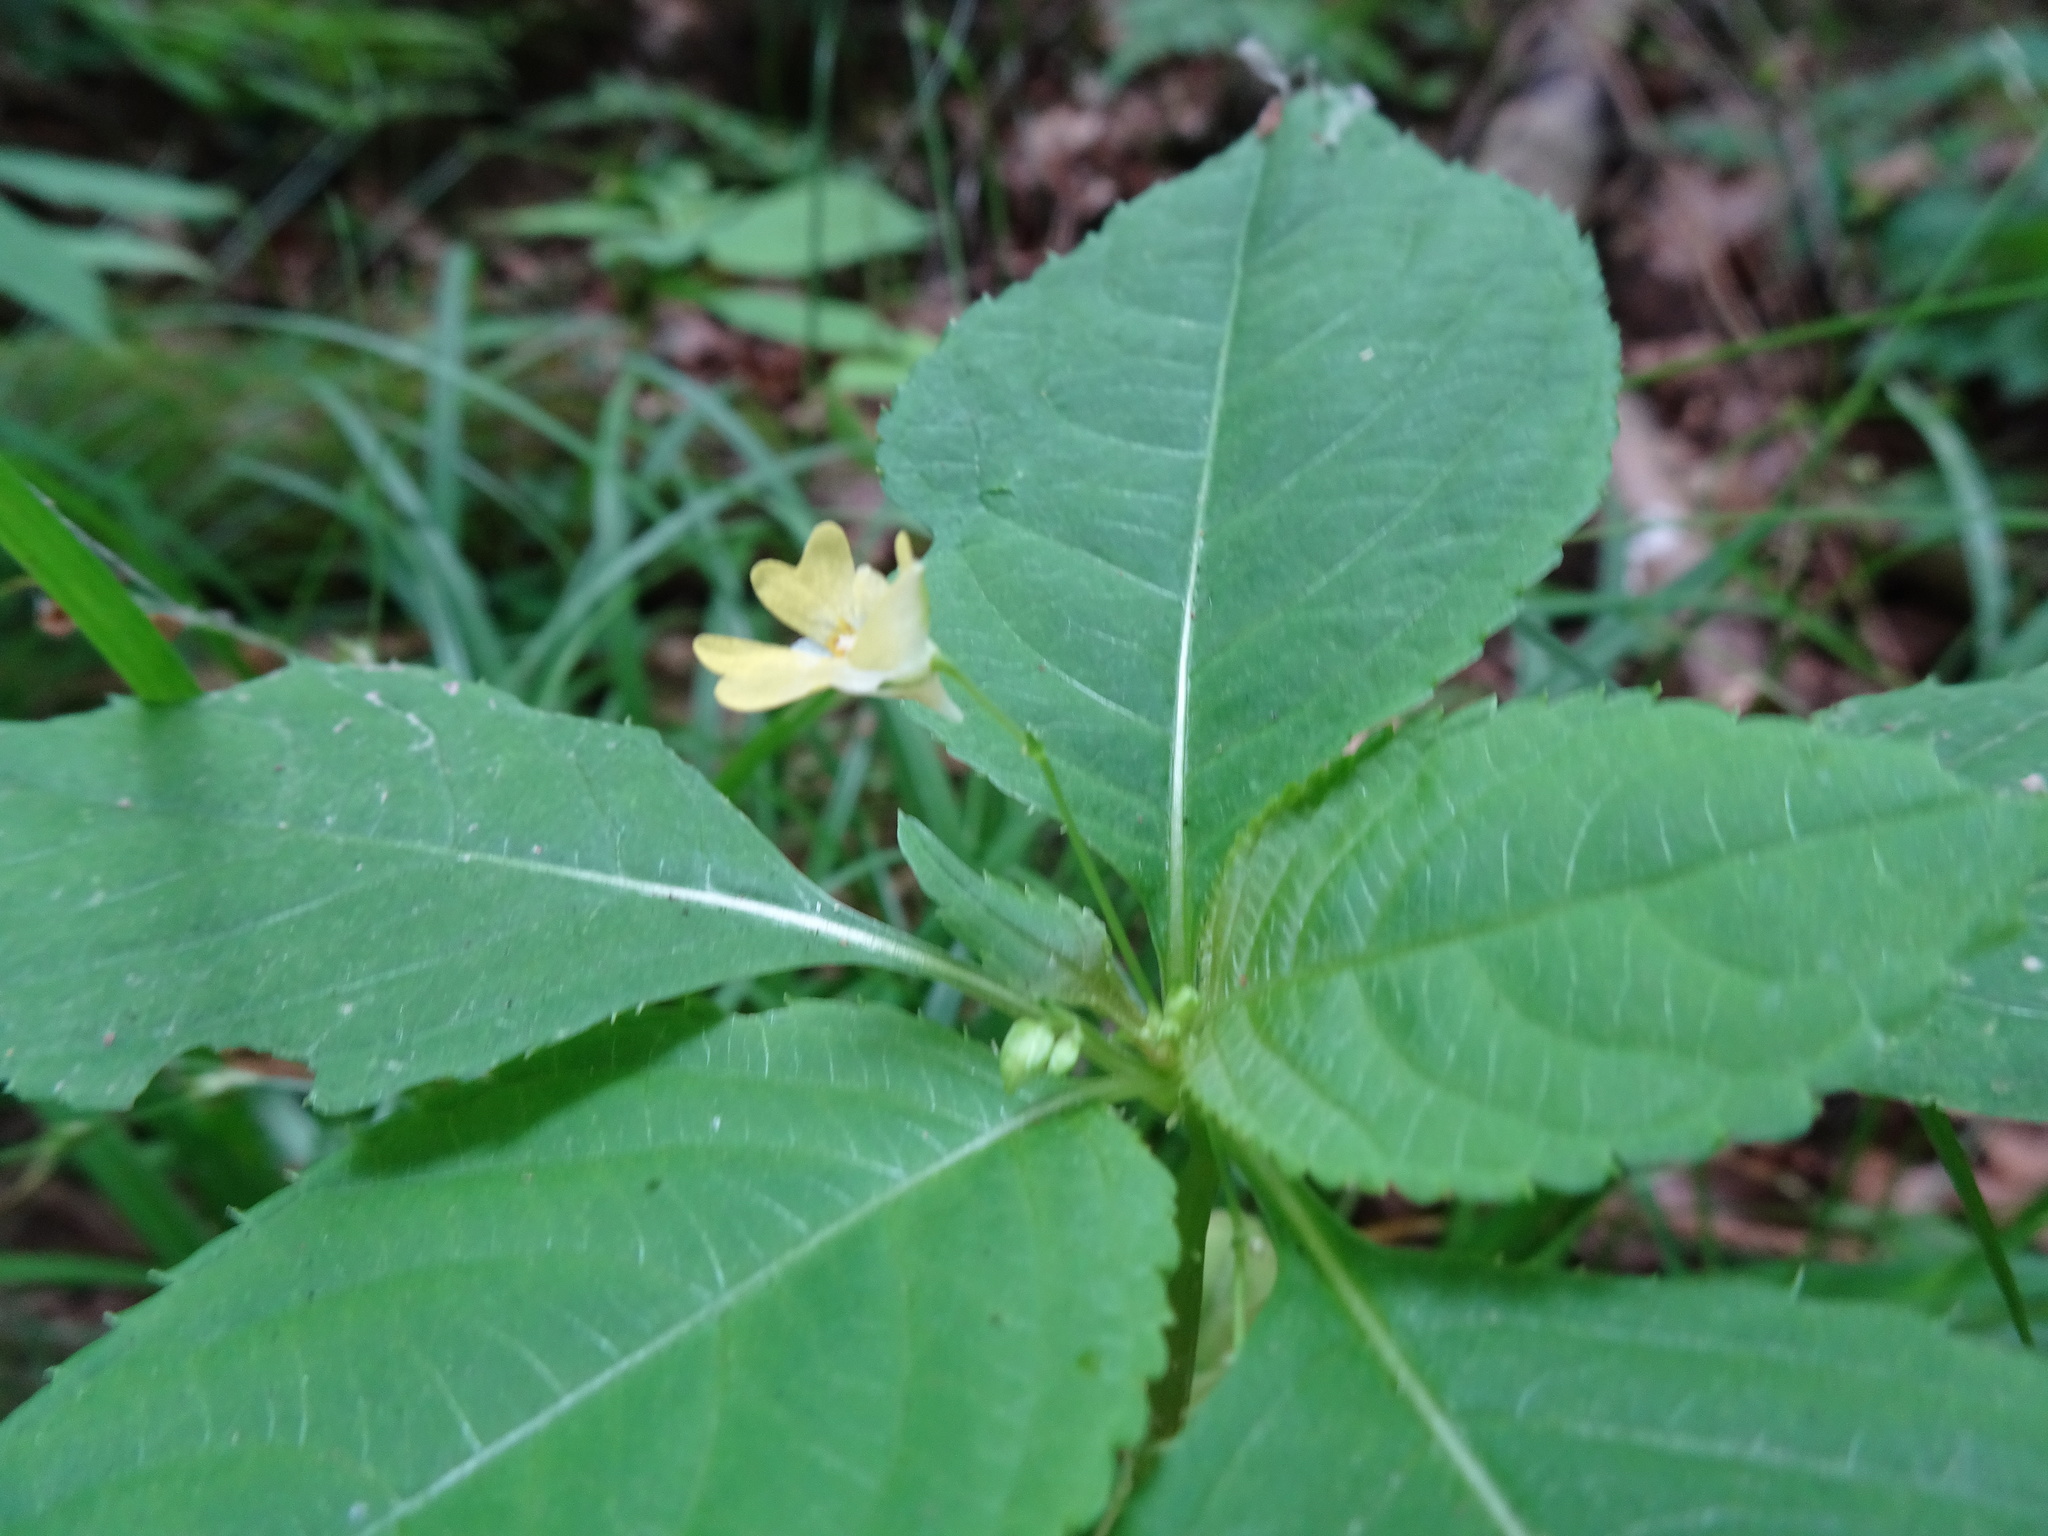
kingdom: Plantae
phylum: Tracheophyta
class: Magnoliopsida
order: Ericales
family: Balsaminaceae
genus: Impatiens
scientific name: Impatiens parviflora
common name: Small balsam
